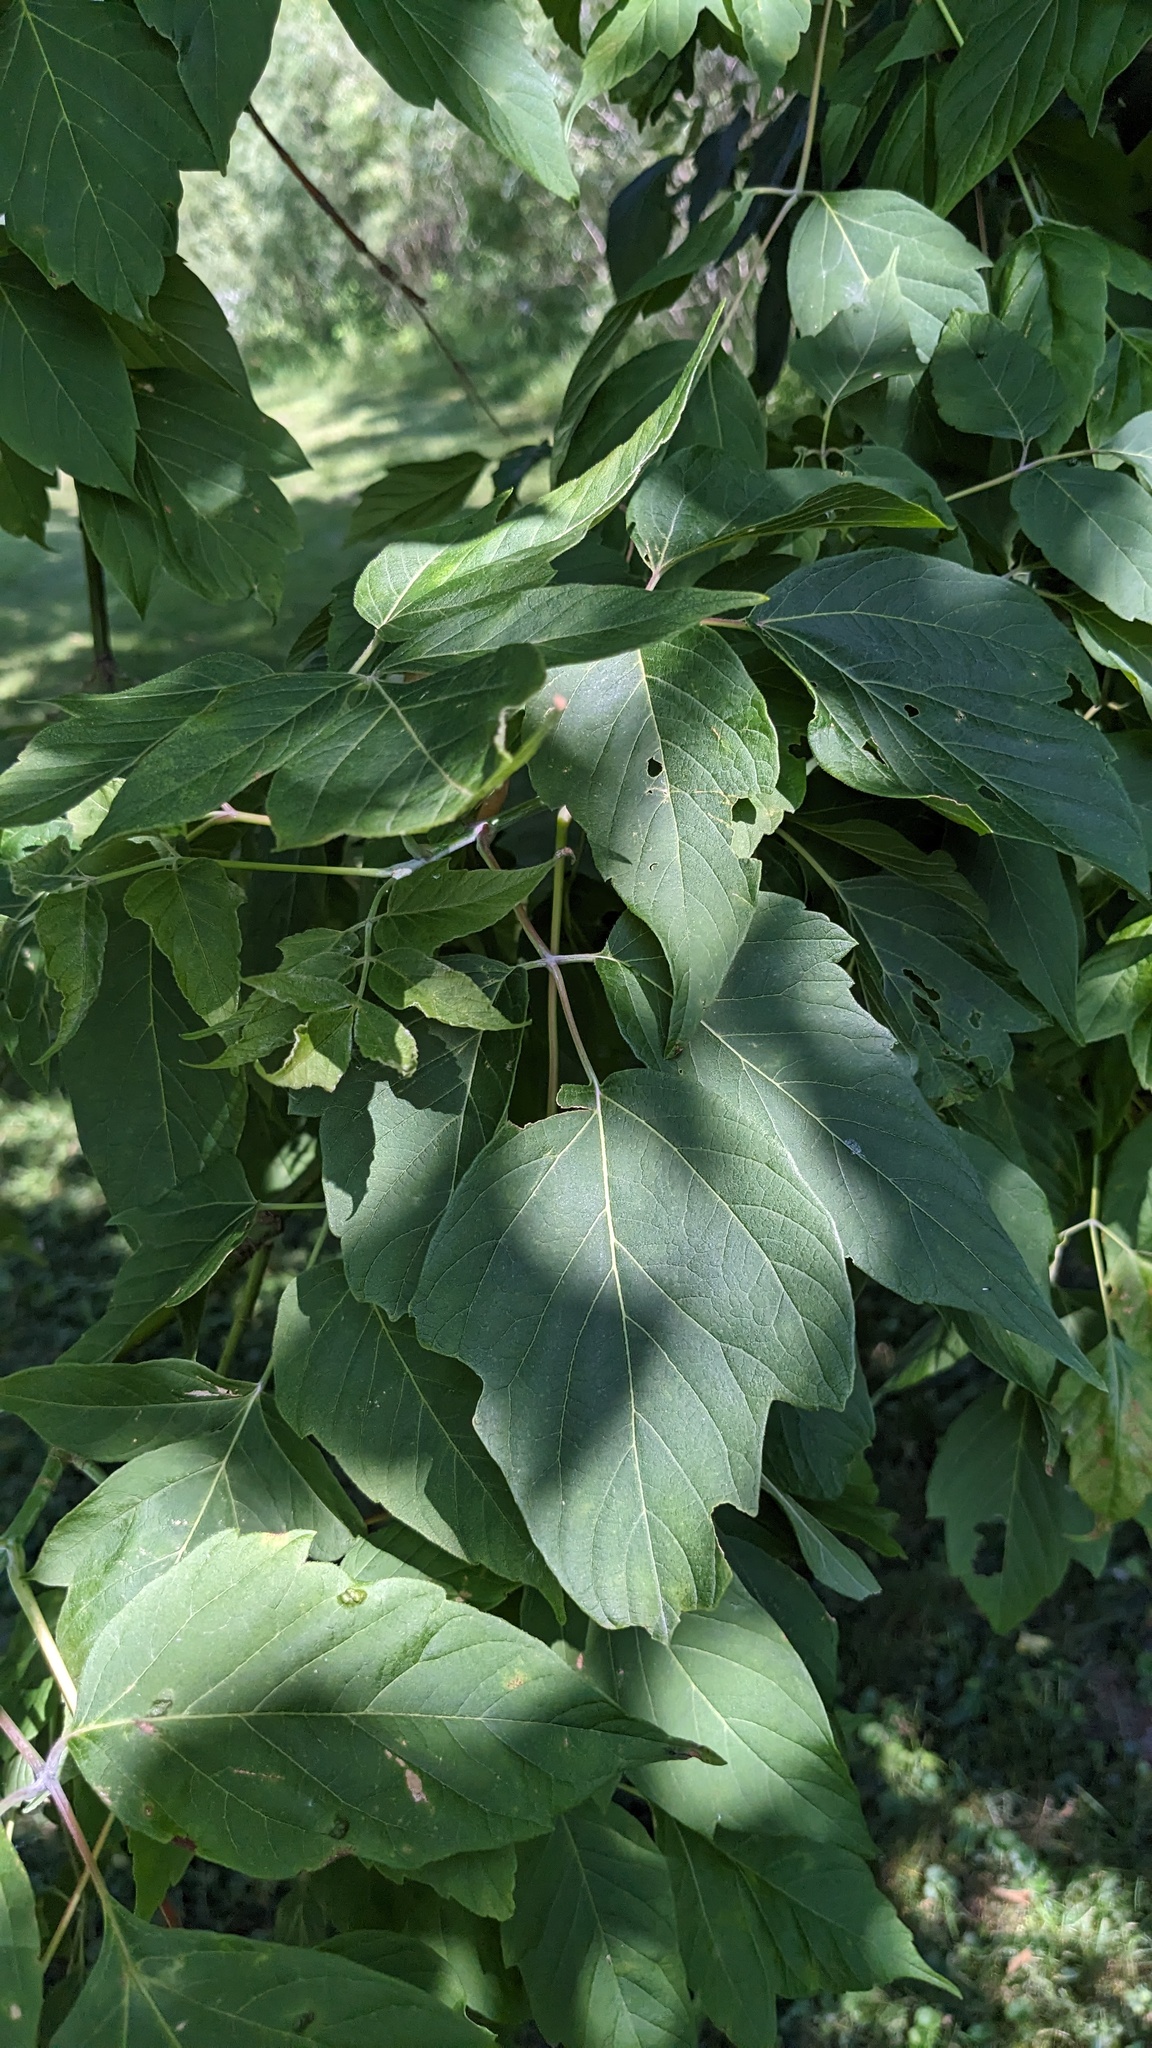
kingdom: Plantae
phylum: Tracheophyta
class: Magnoliopsida
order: Sapindales
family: Sapindaceae
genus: Acer
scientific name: Acer negundo
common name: Ashleaf maple
